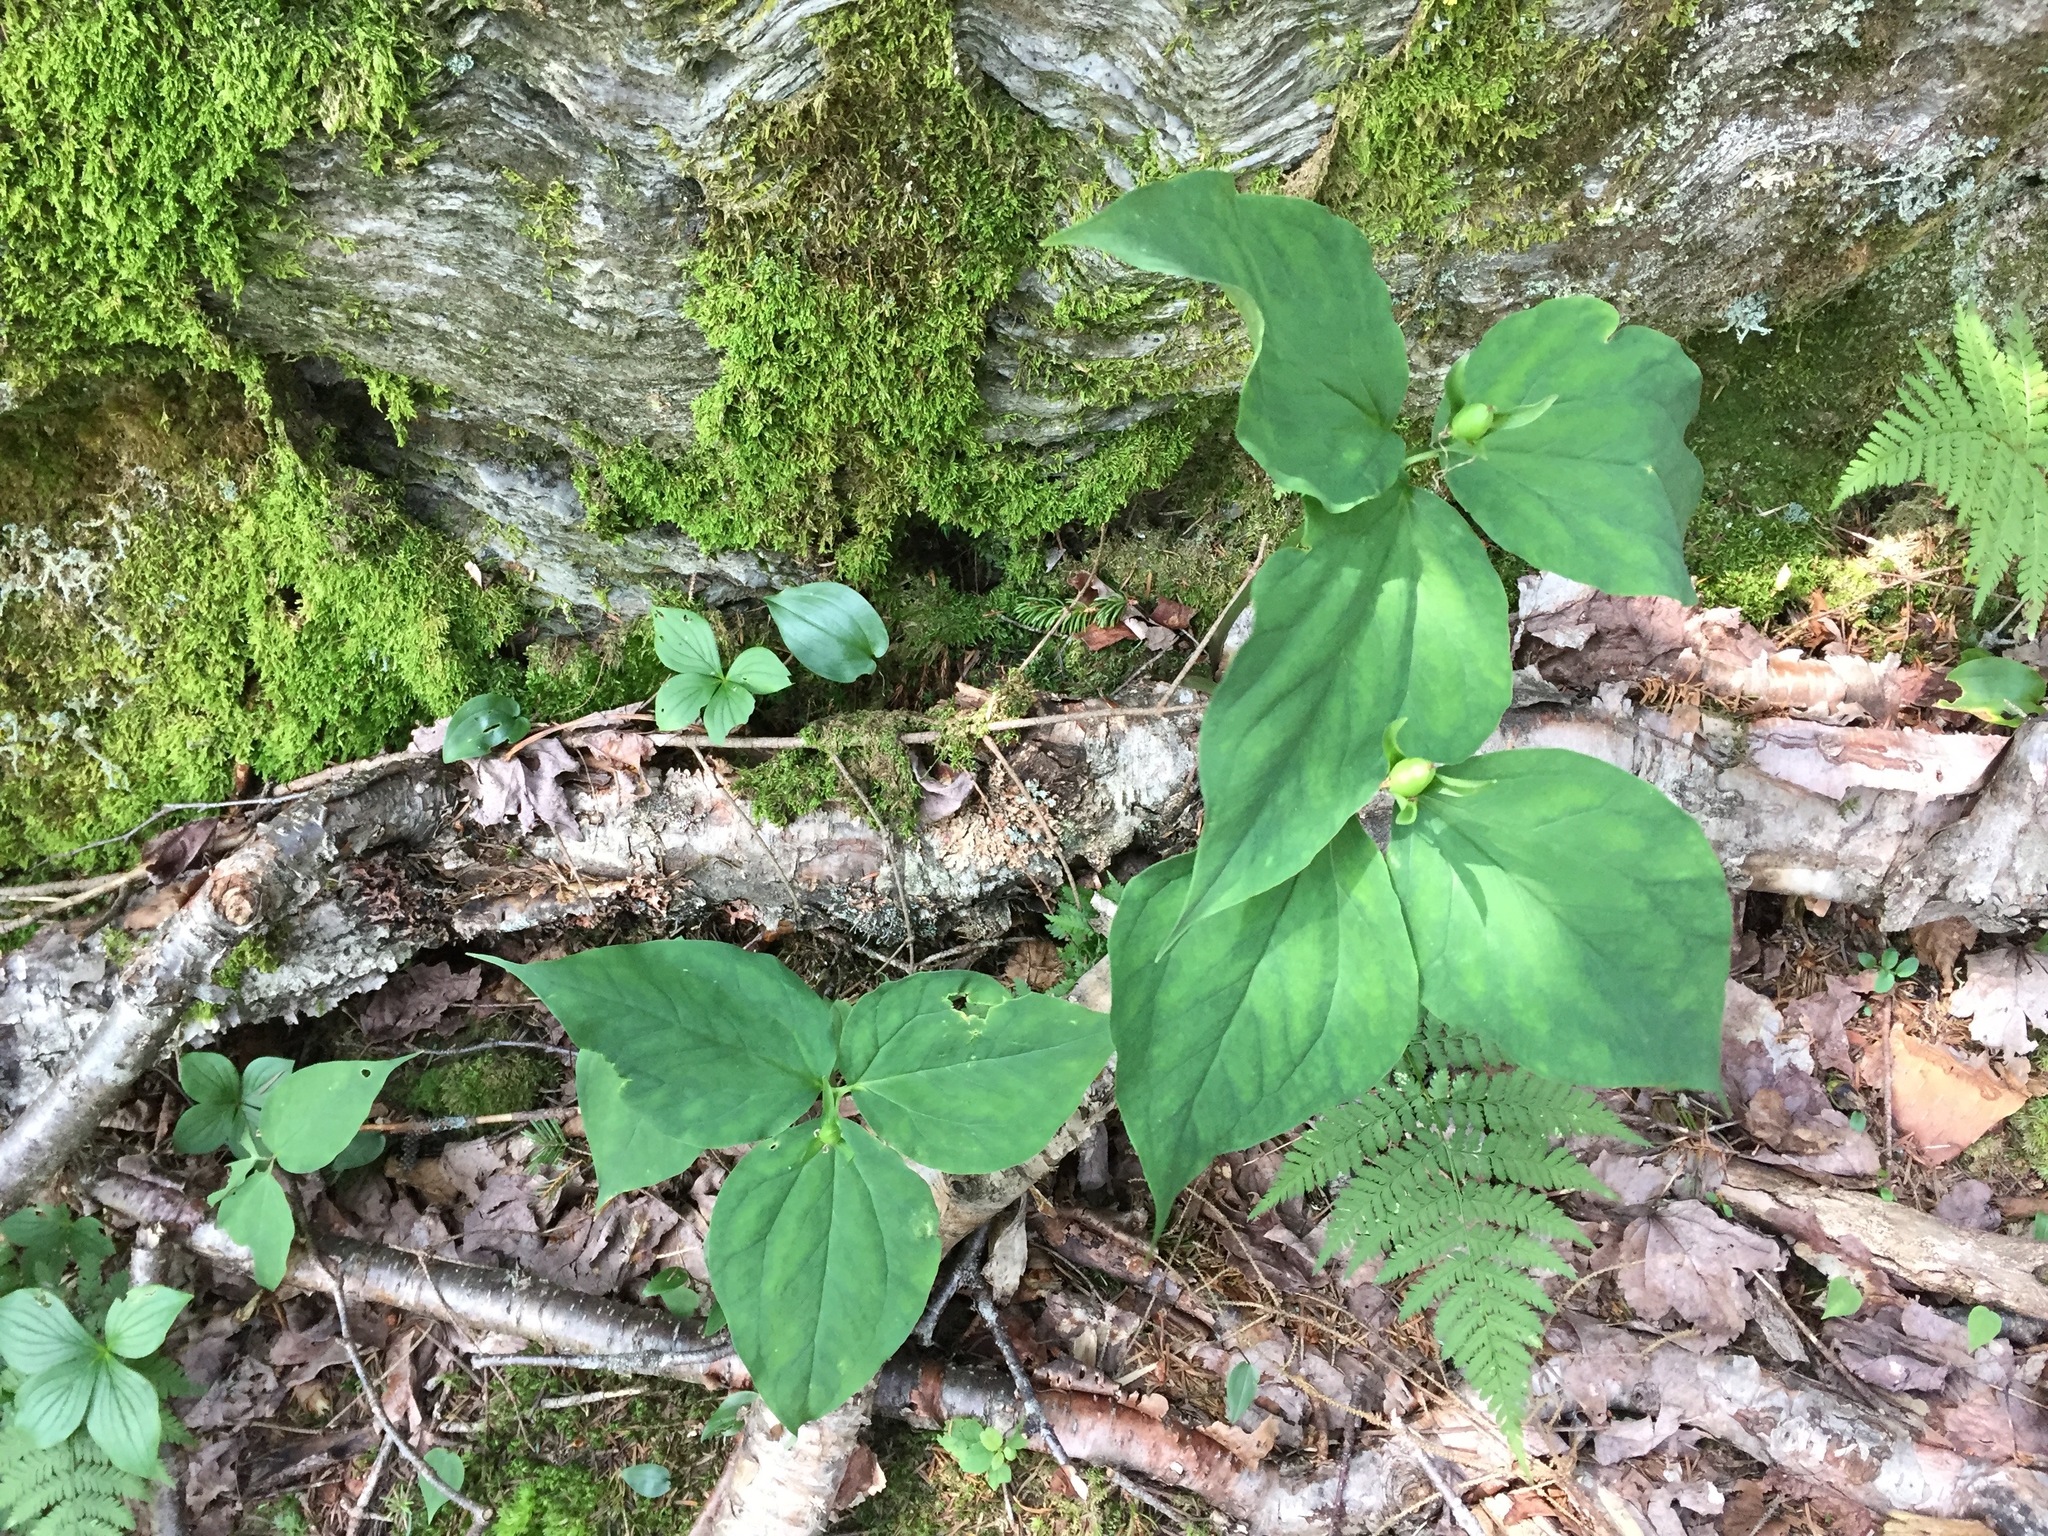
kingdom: Plantae
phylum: Tracheophyta
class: Liliopsida
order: Liliales
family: Melanthiaceae
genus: Trillium
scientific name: Trillium undulatum
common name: Paint trillium
